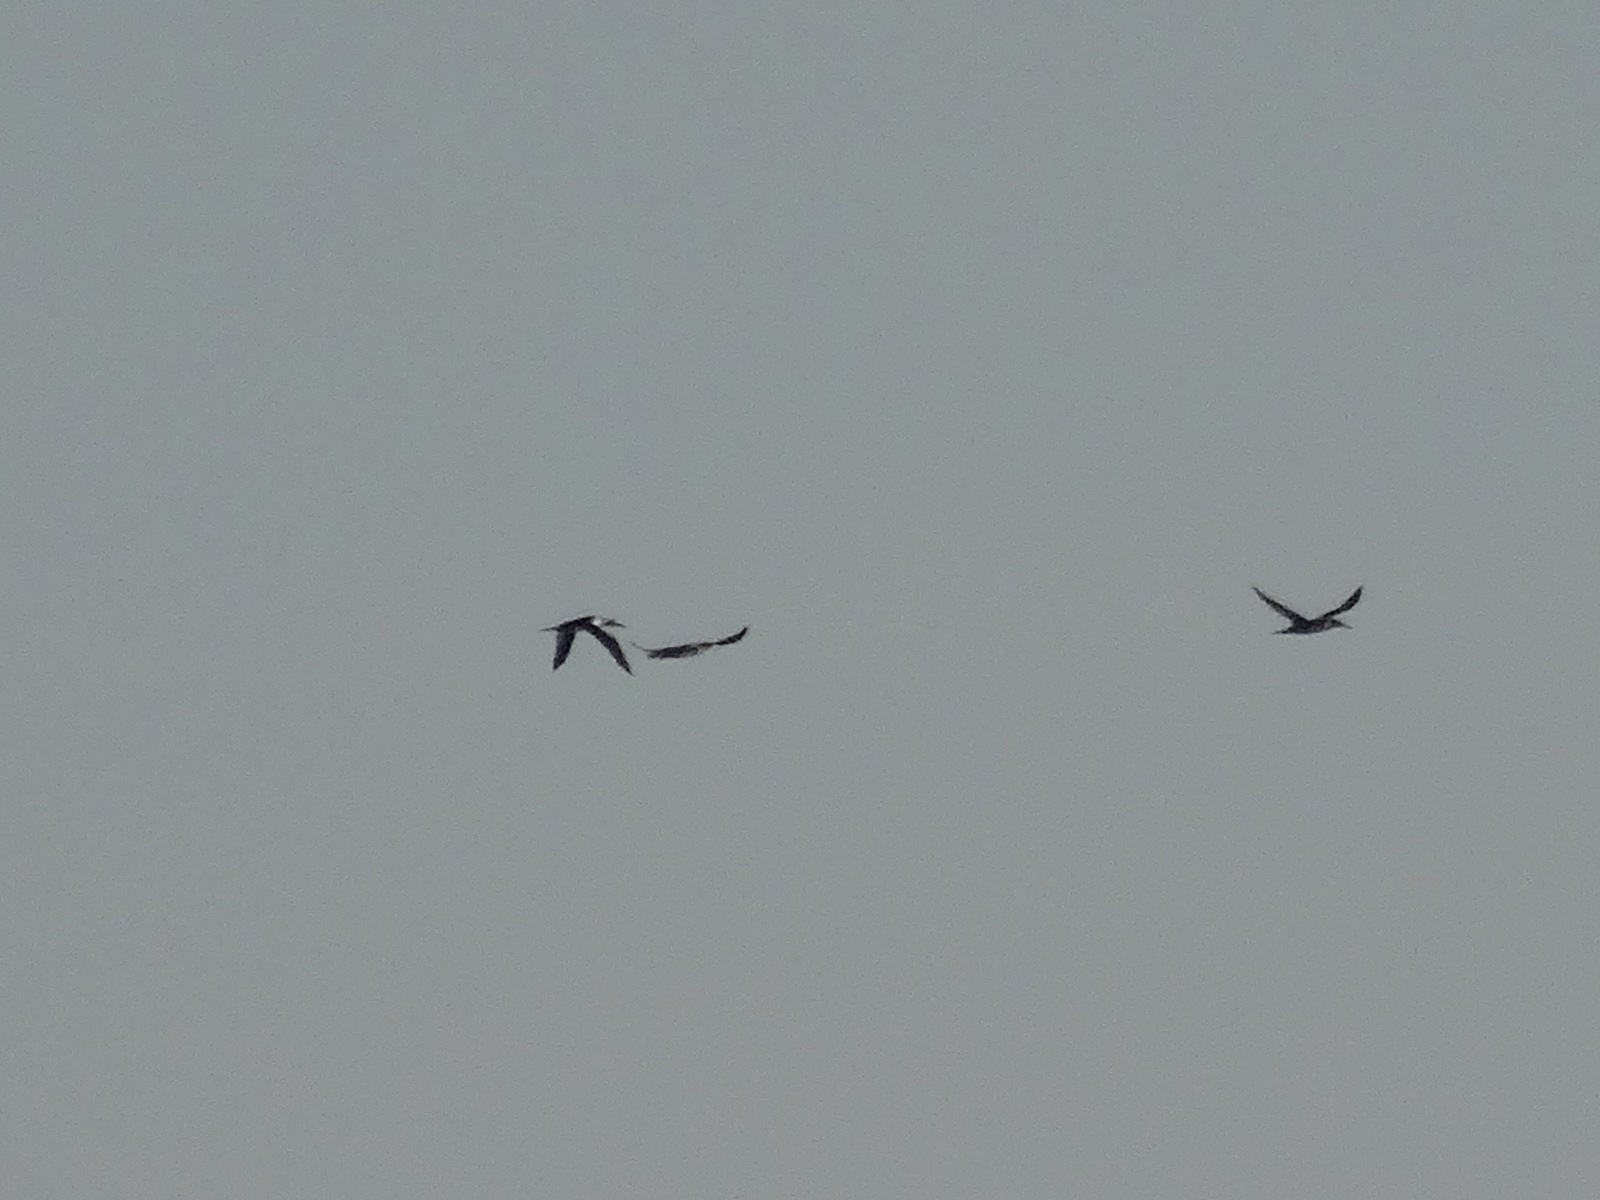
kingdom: Animalia
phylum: Chordata
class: Aves
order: Suliformes
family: Sulidae
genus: Morus
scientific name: Morus bassanus
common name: Northern gannet
